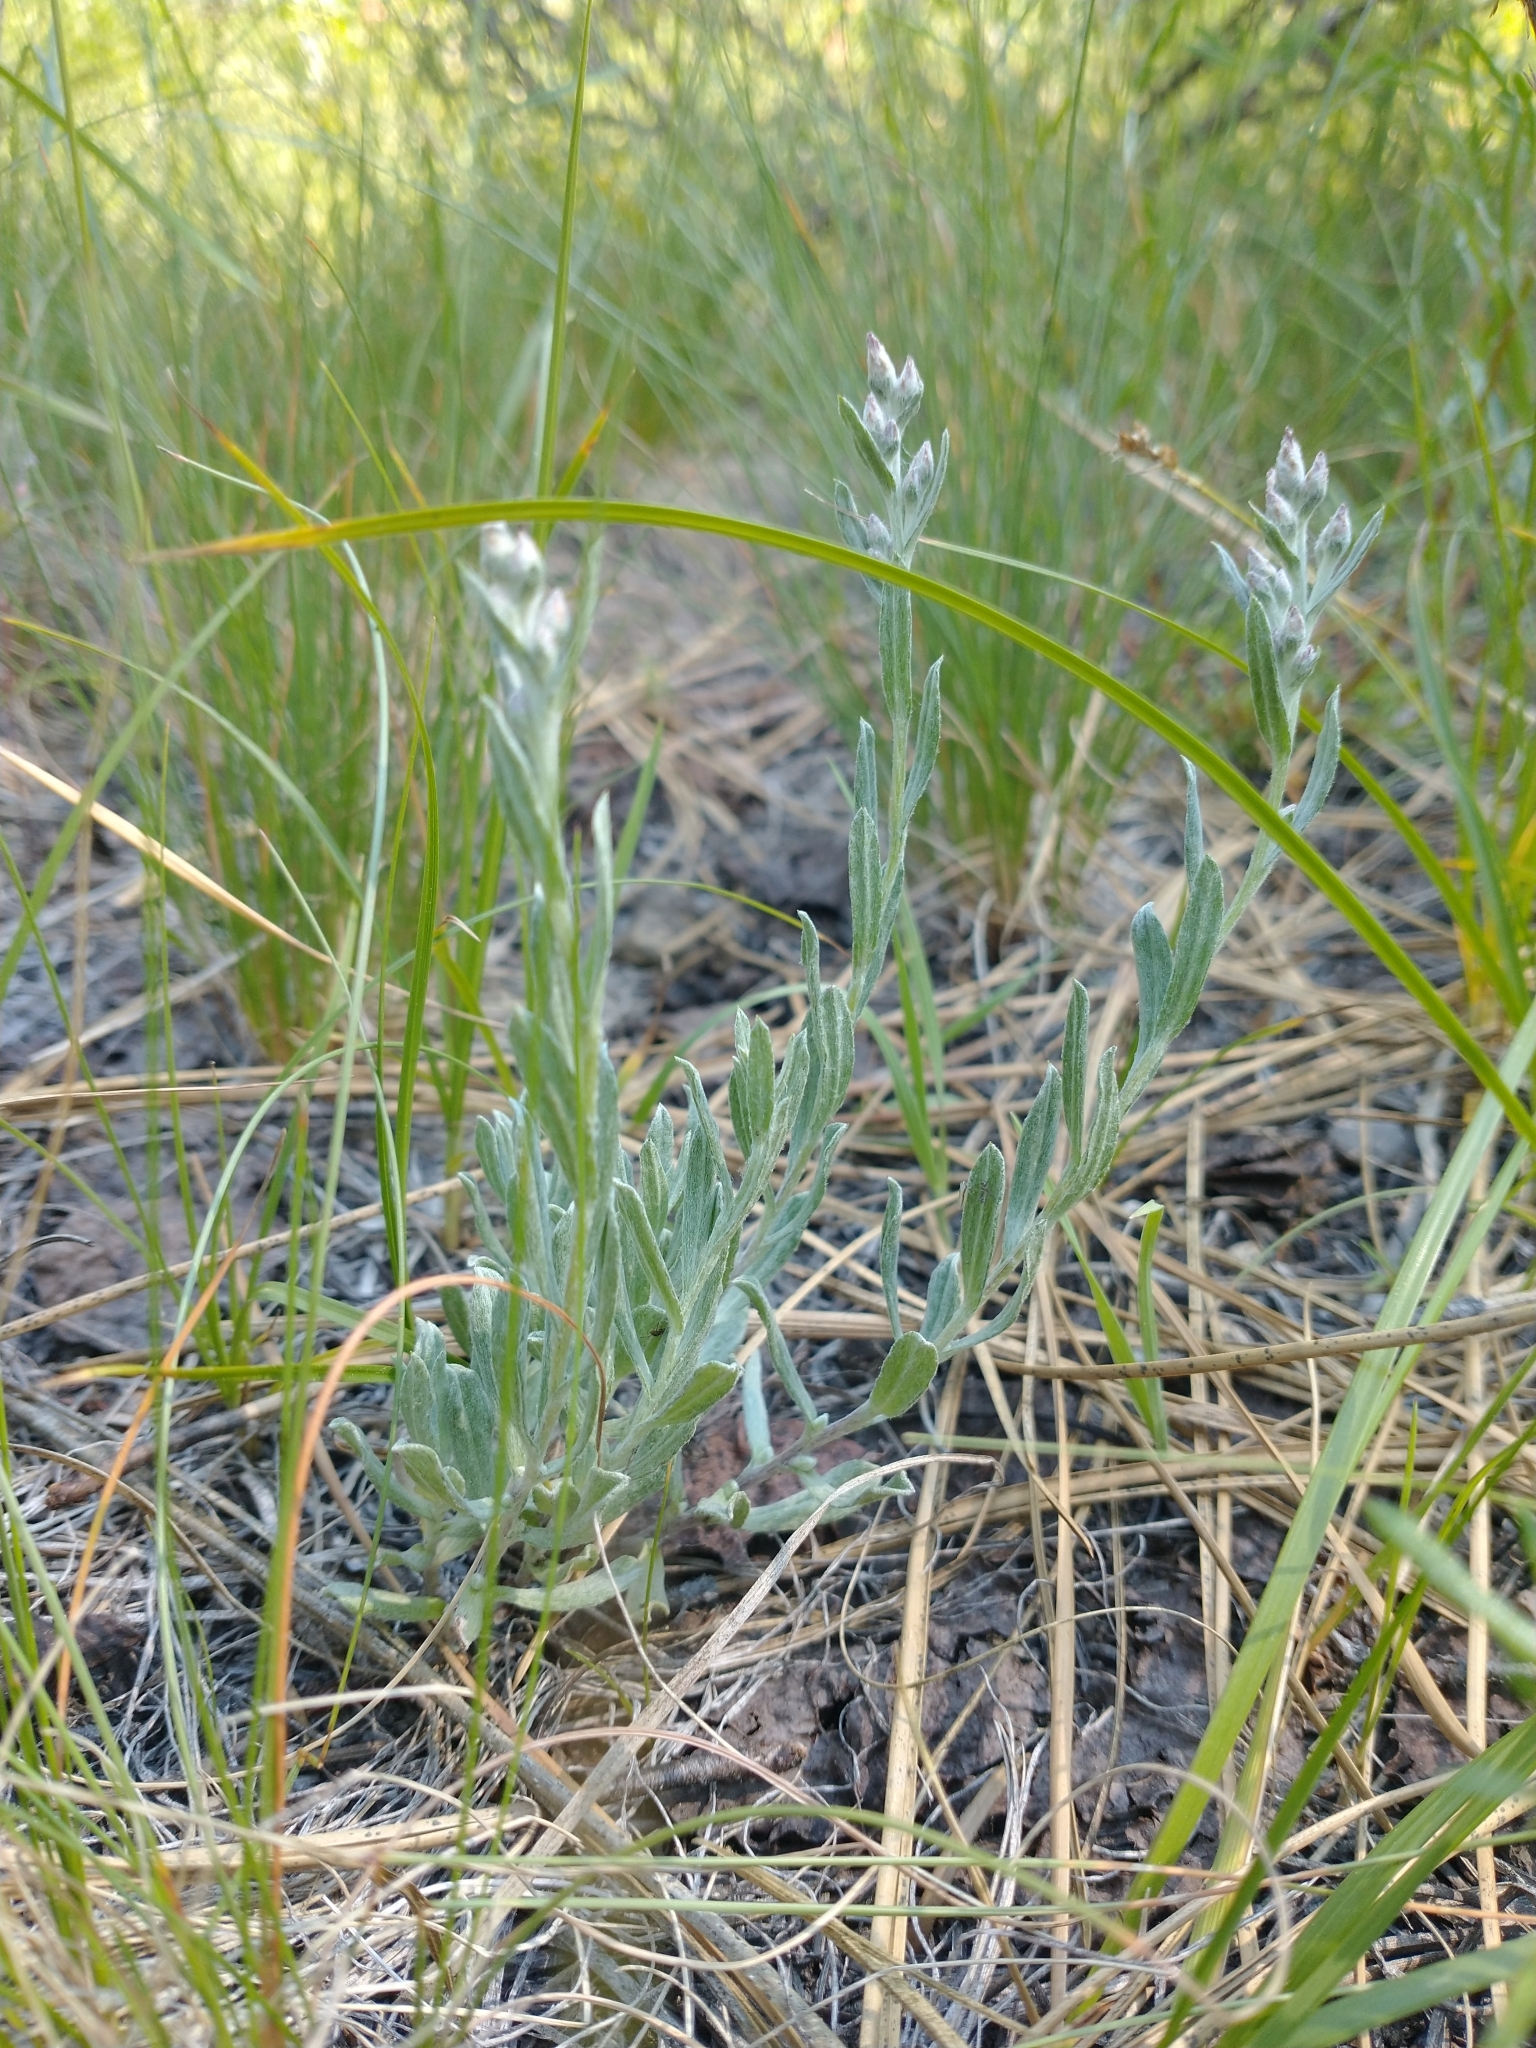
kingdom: Plantae
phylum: Tracheophyta
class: Magnoliopsida
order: Asterales
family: Asteraceae
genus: Antennaria
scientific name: Antennaria geyeri
